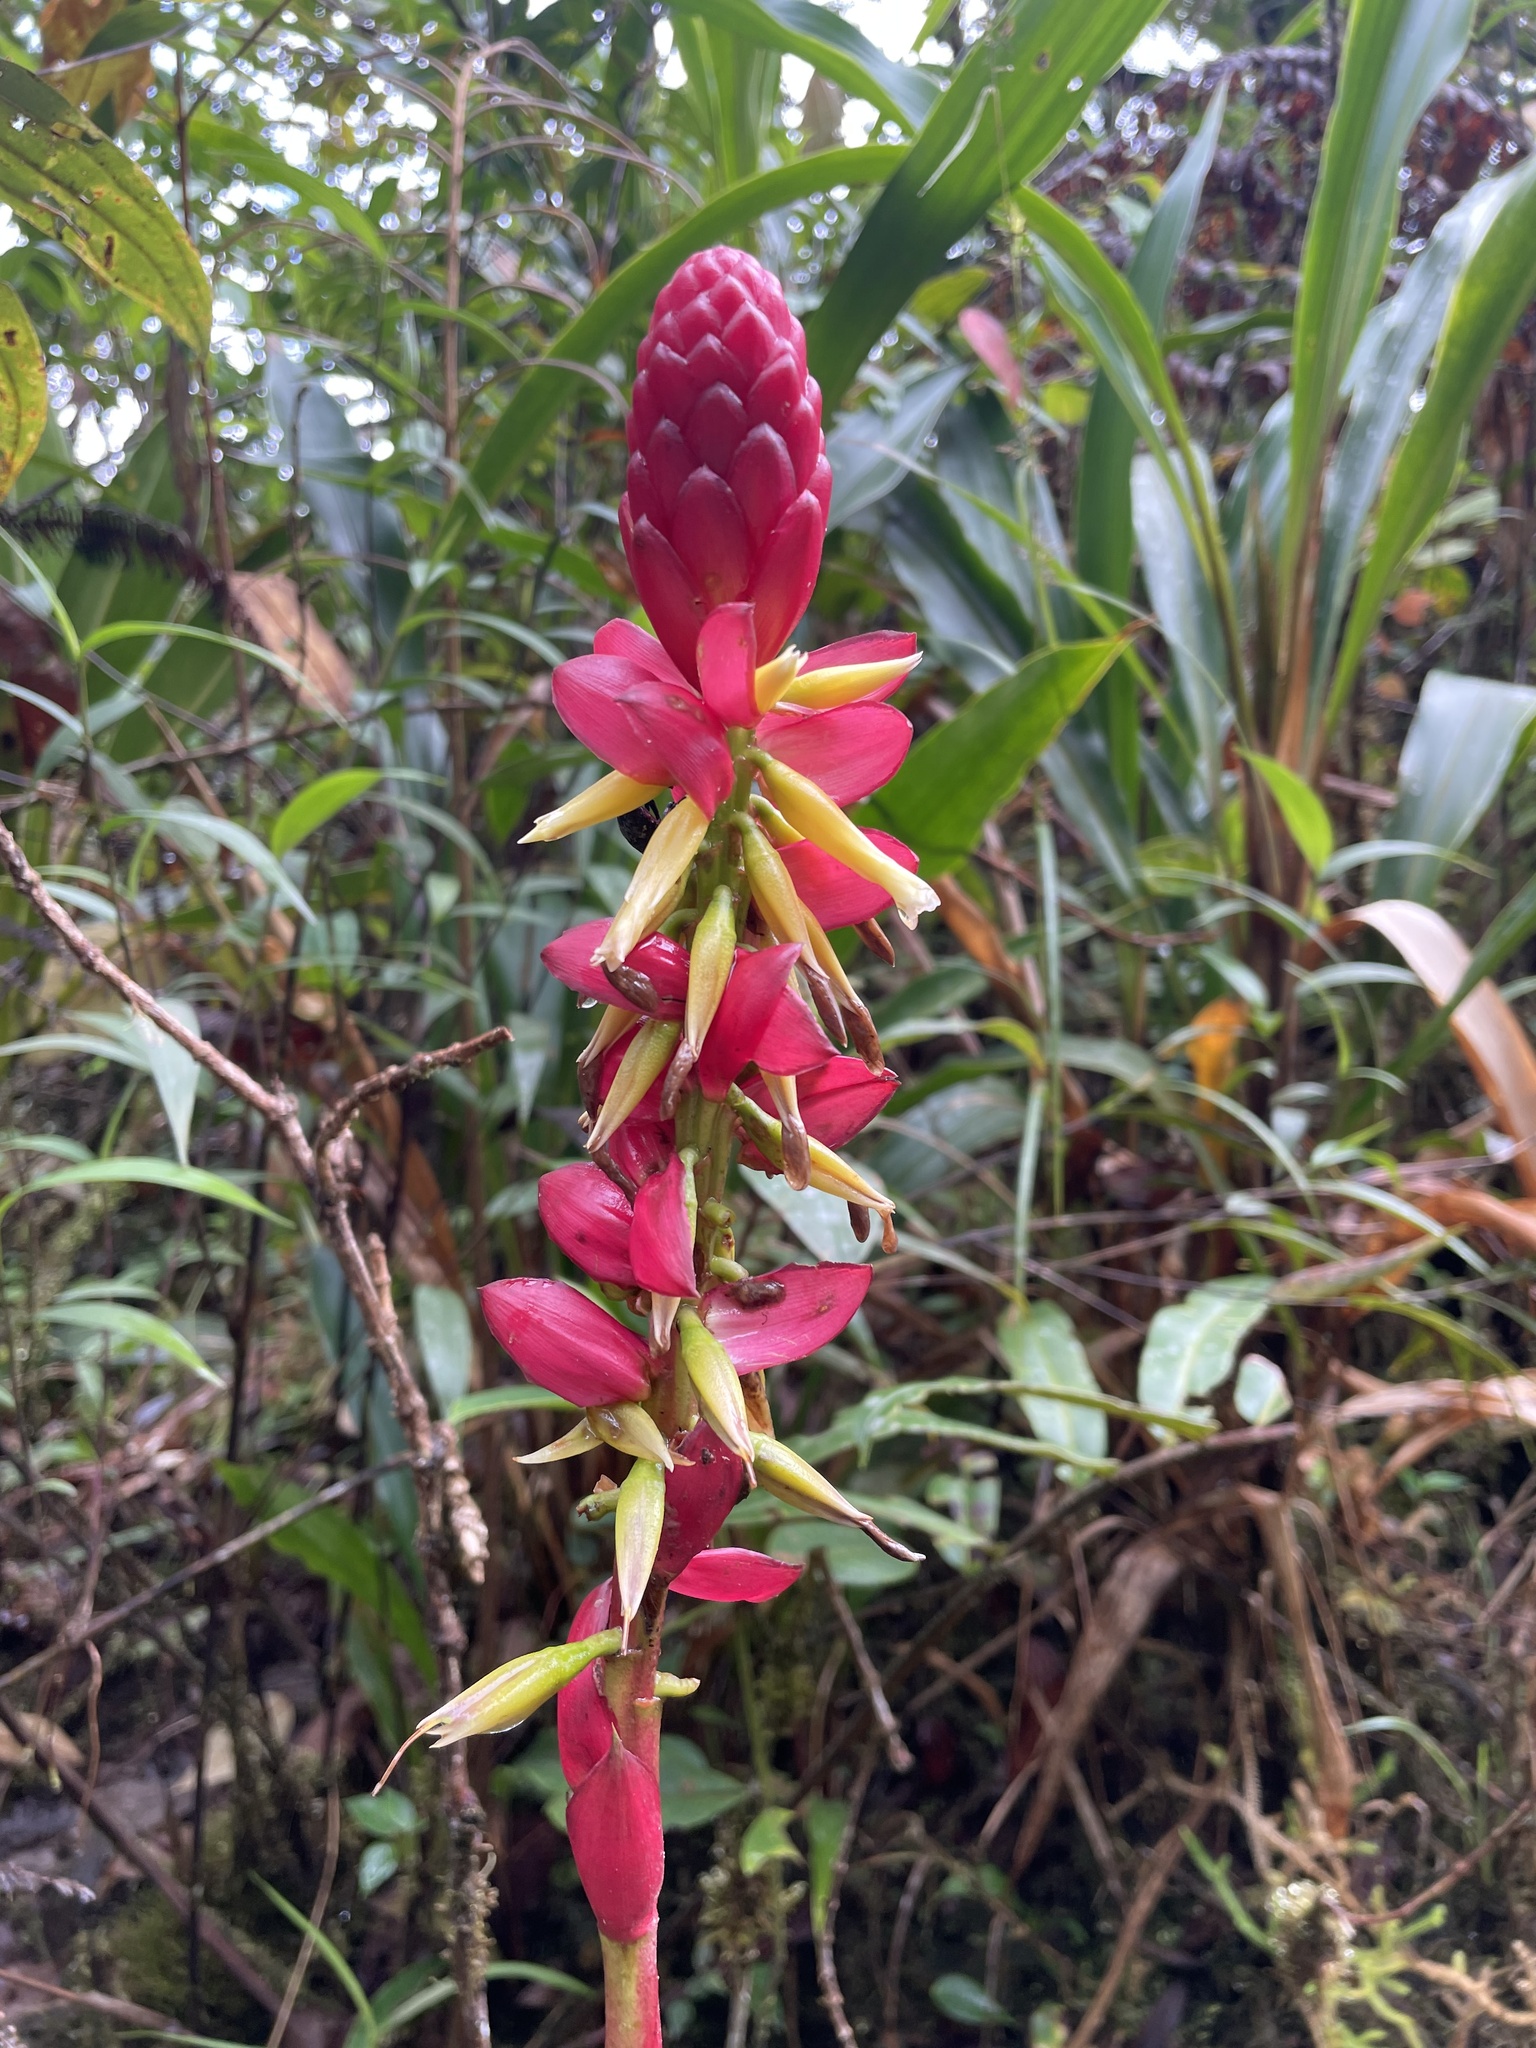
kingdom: Plantae
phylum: Tracheophyta
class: Liliopsida
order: Poales
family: Bromeliaceae
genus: Pitcairnia
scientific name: Pitcairnia kniphofioides
